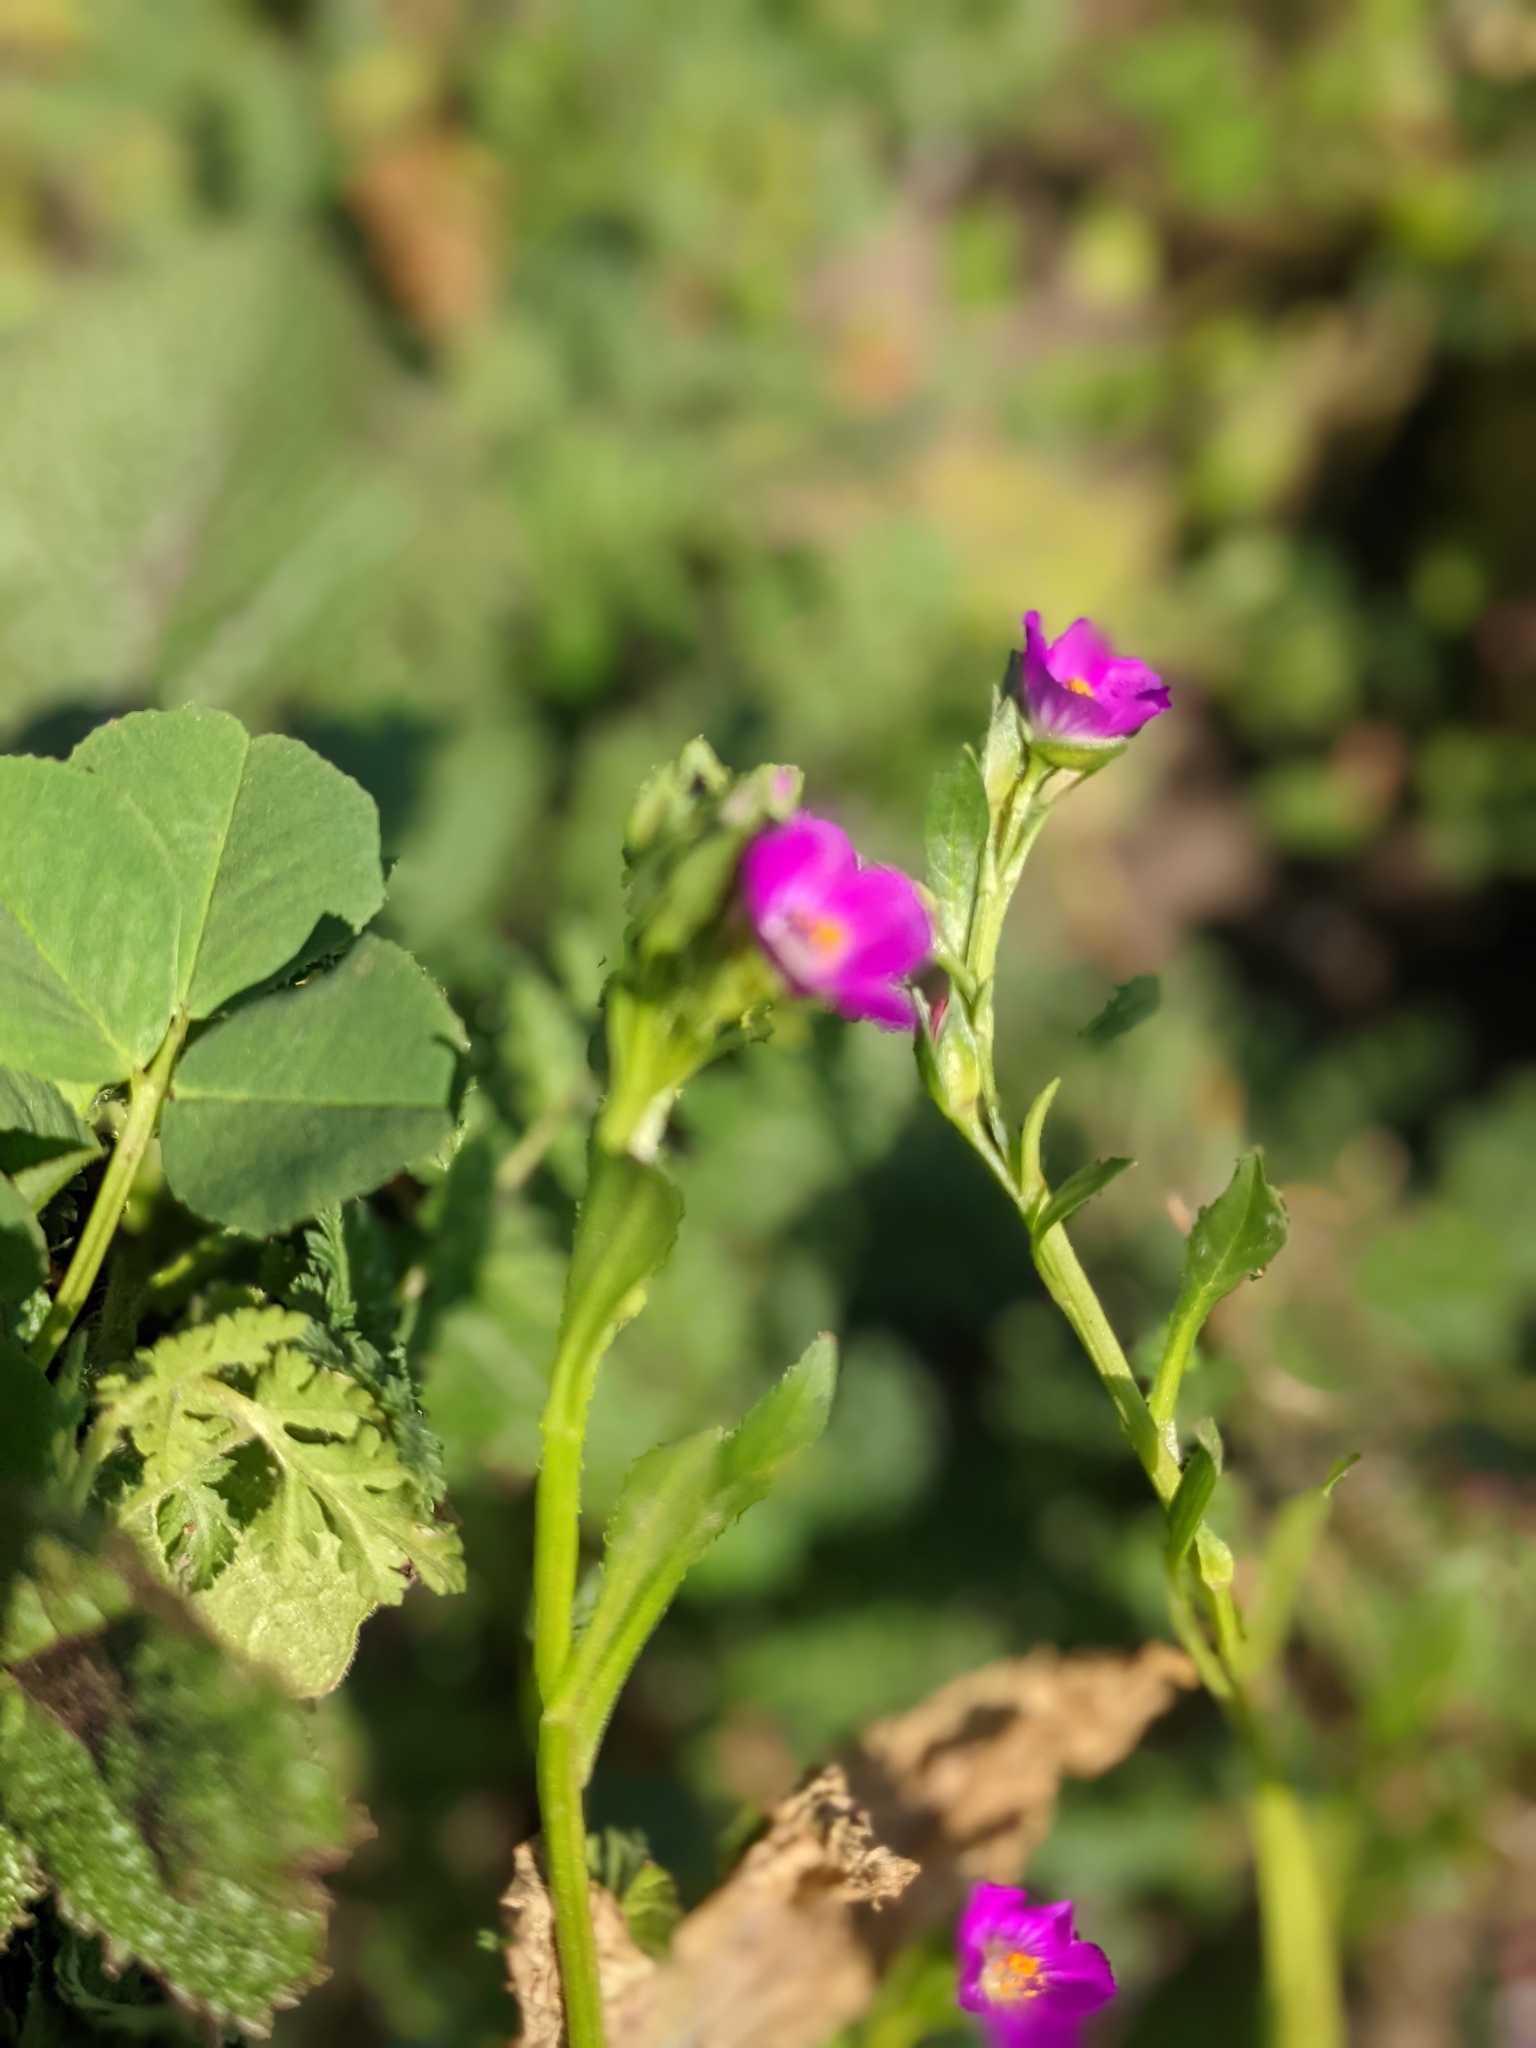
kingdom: Plantae
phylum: Tracheophyta
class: Magnoliopsida
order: Caryophyllales
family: Montiaceae
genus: Calandrinia
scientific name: Calandrinia menziesii
